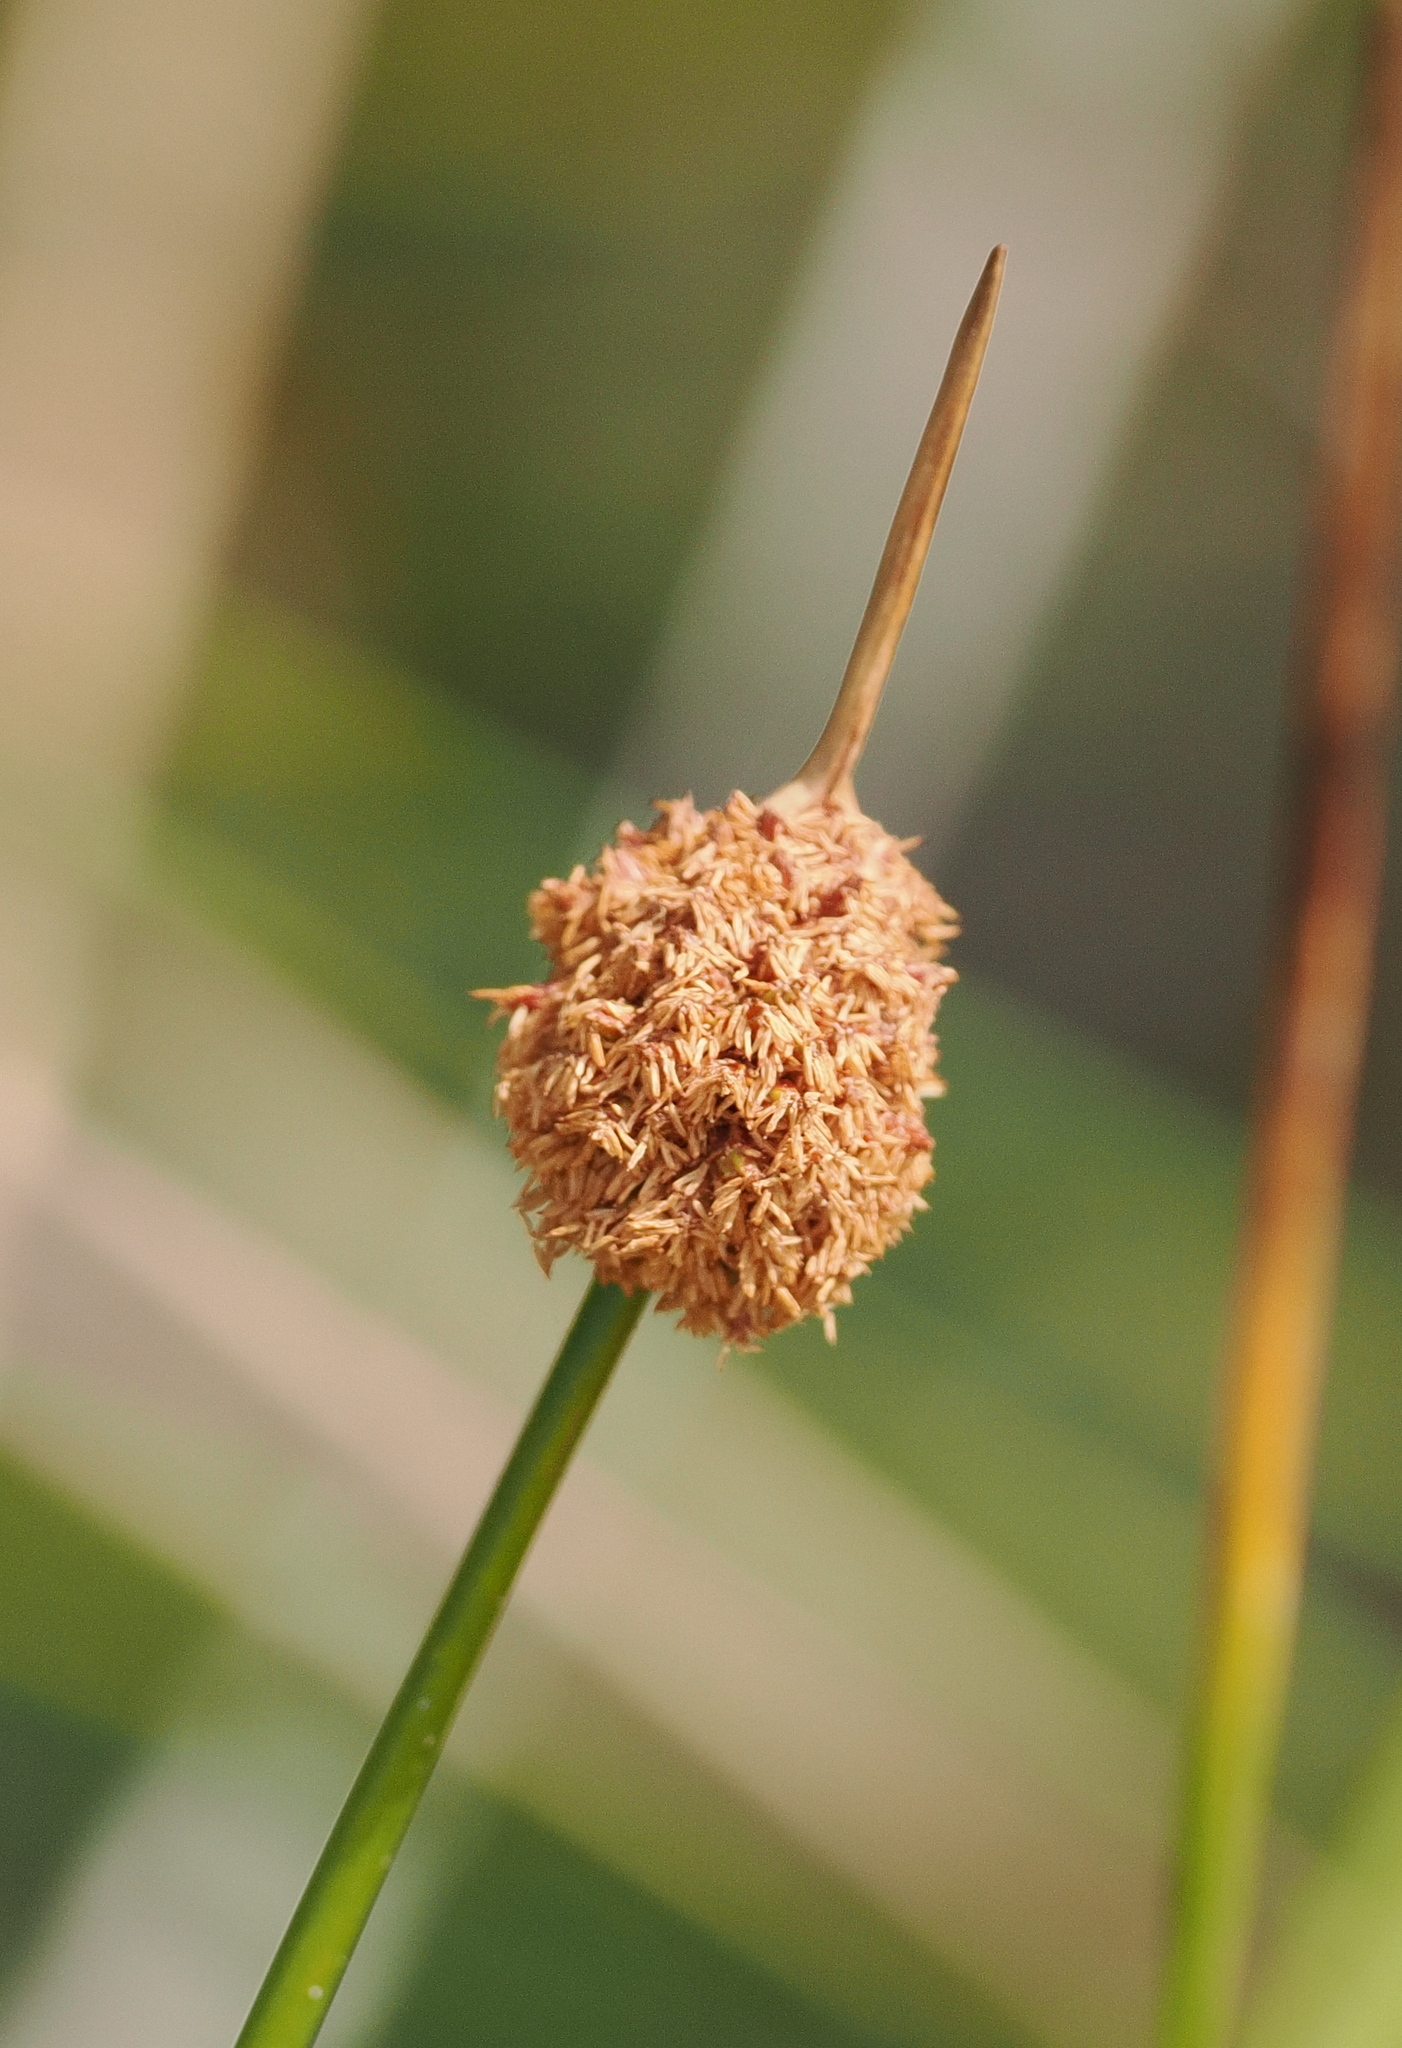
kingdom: Plantae
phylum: Tracheophyta
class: Liliopsida
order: Poales
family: Cyperaceae
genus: Ficinia
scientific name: Ficinia nodosa
